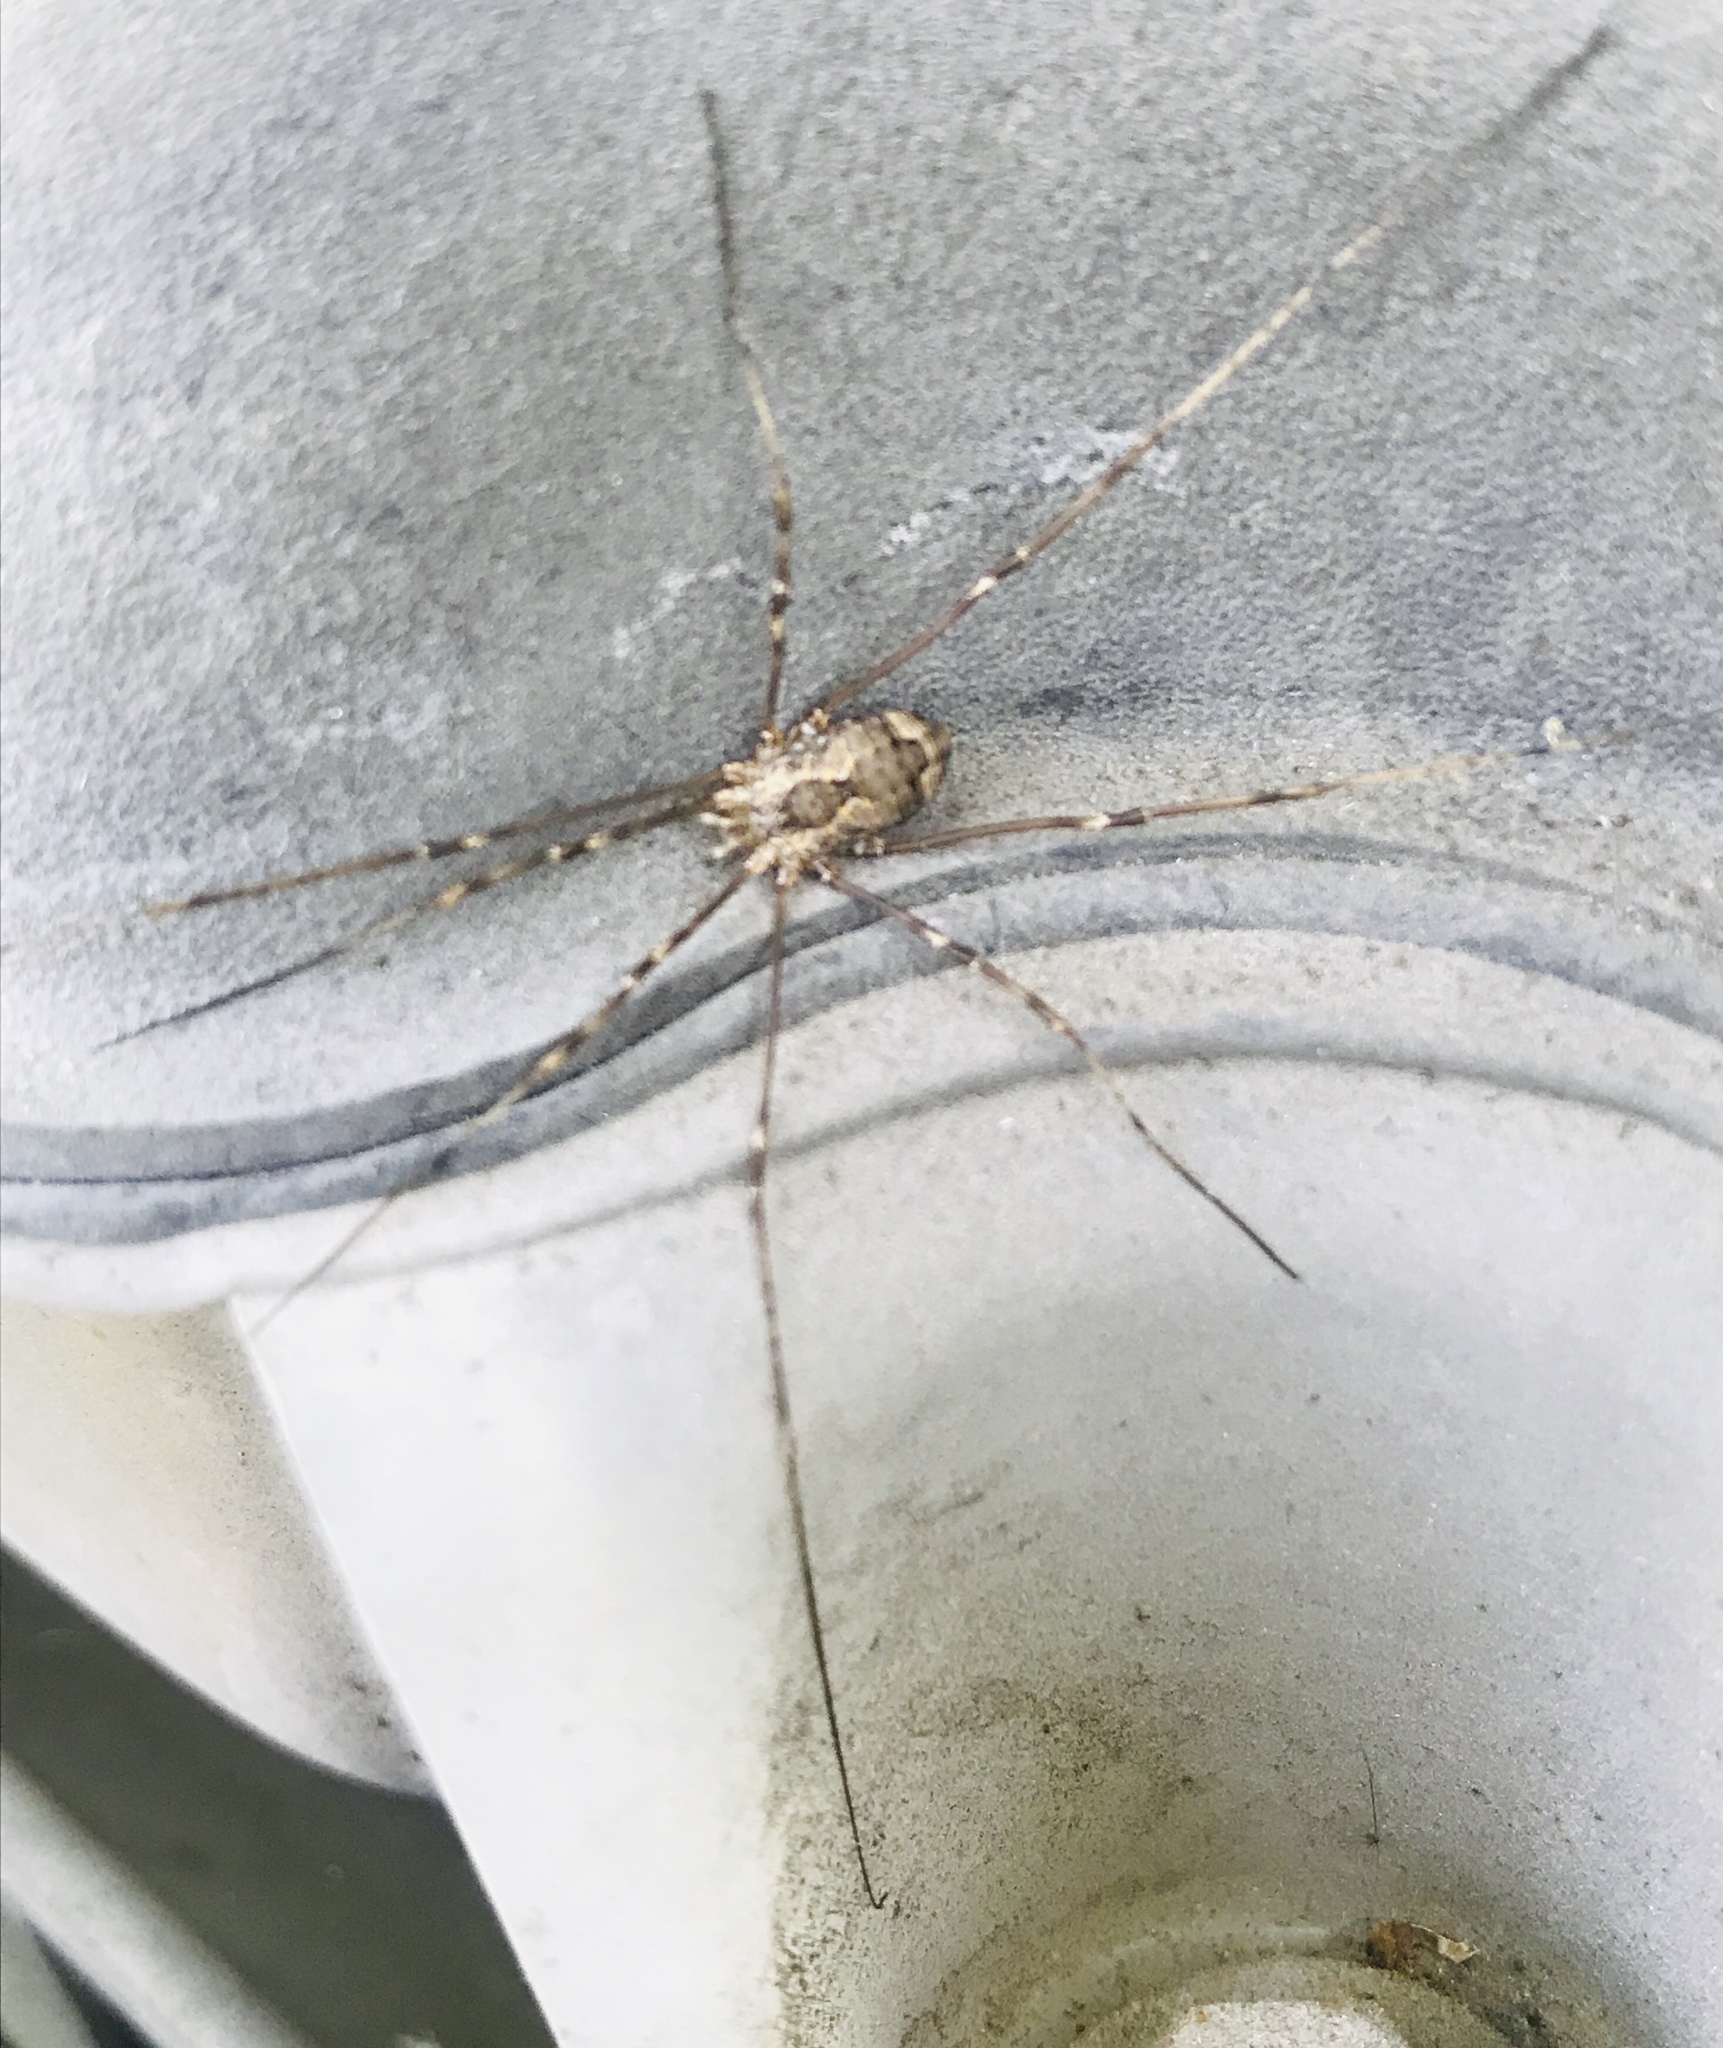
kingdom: Animalia
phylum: Arthropoda
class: Arachnida
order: Opiliones
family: Sclerosomatidae
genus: Leiobunum
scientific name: Leiobunum flavum
